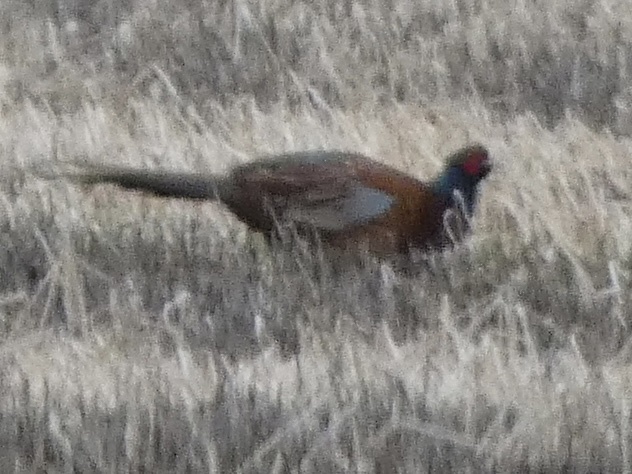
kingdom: Animalia
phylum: Chordata
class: Aves
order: Galliformes
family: Phasianidae
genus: Phasianus
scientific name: Phasianus colchicus
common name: Common pheasant
